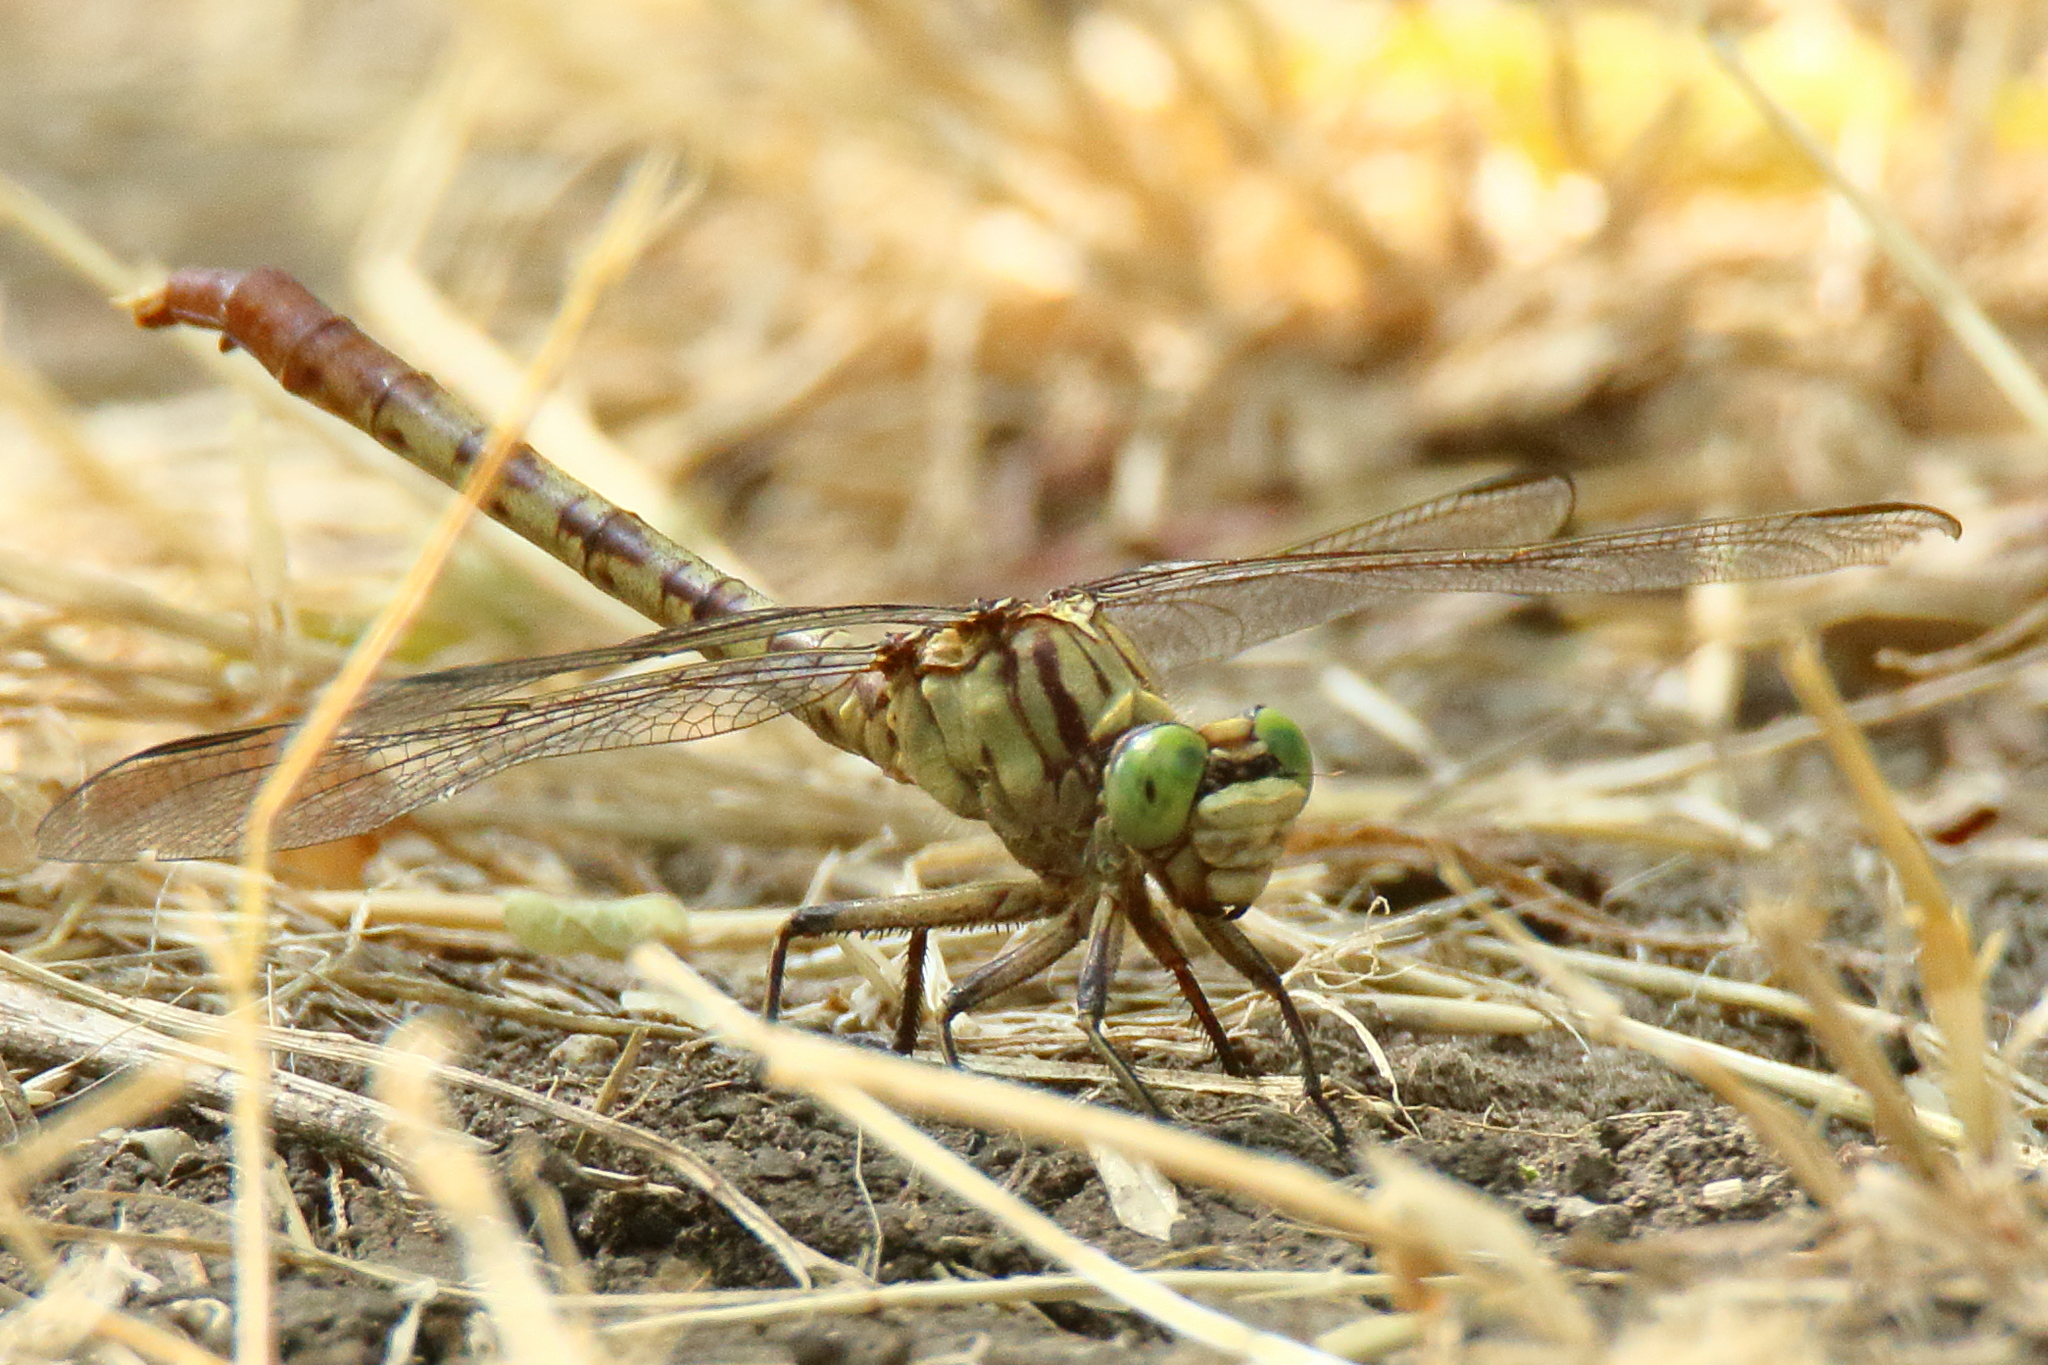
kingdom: Animalia
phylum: Arthropoda
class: Insecta
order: Odonata
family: Gomphidae
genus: Arigomphus
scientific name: Arigomphus submedianus
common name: Jade clubtail
